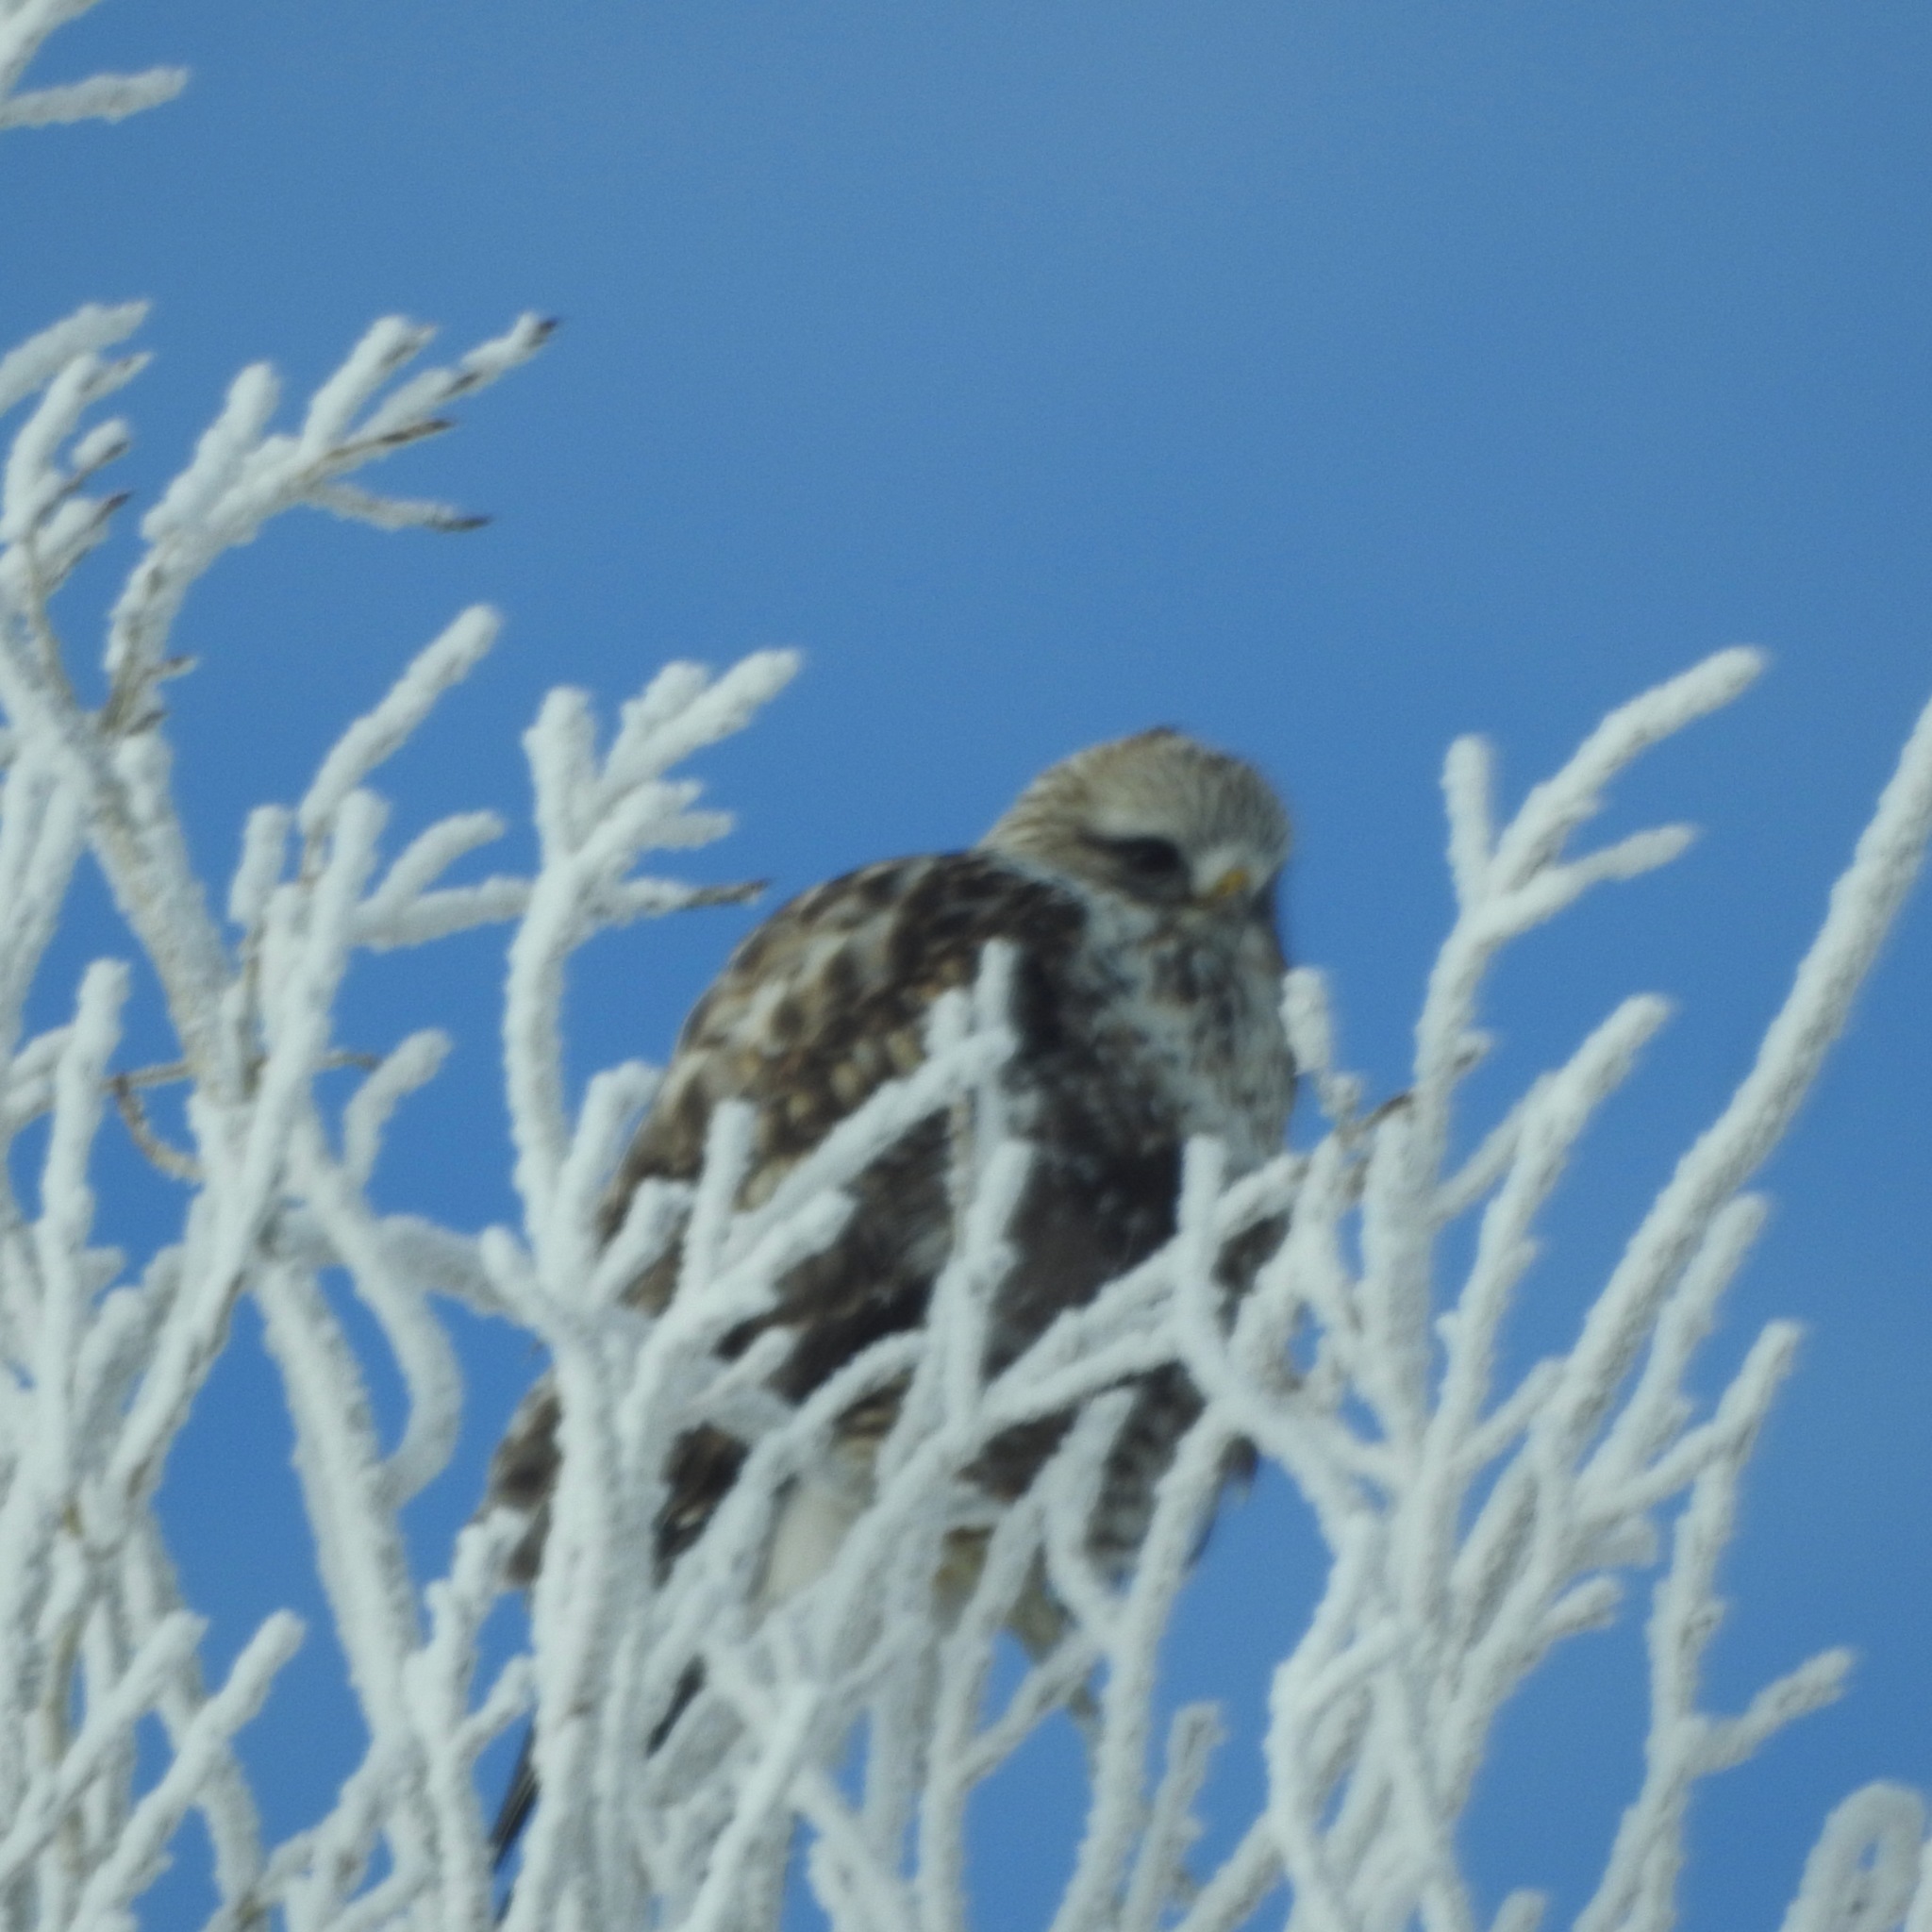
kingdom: Animalia
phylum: Chordata
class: Aves
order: Accipitriformes
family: Accipitridae
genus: Buteo
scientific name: Buteo lagopus
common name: Rough-legged buzzard
